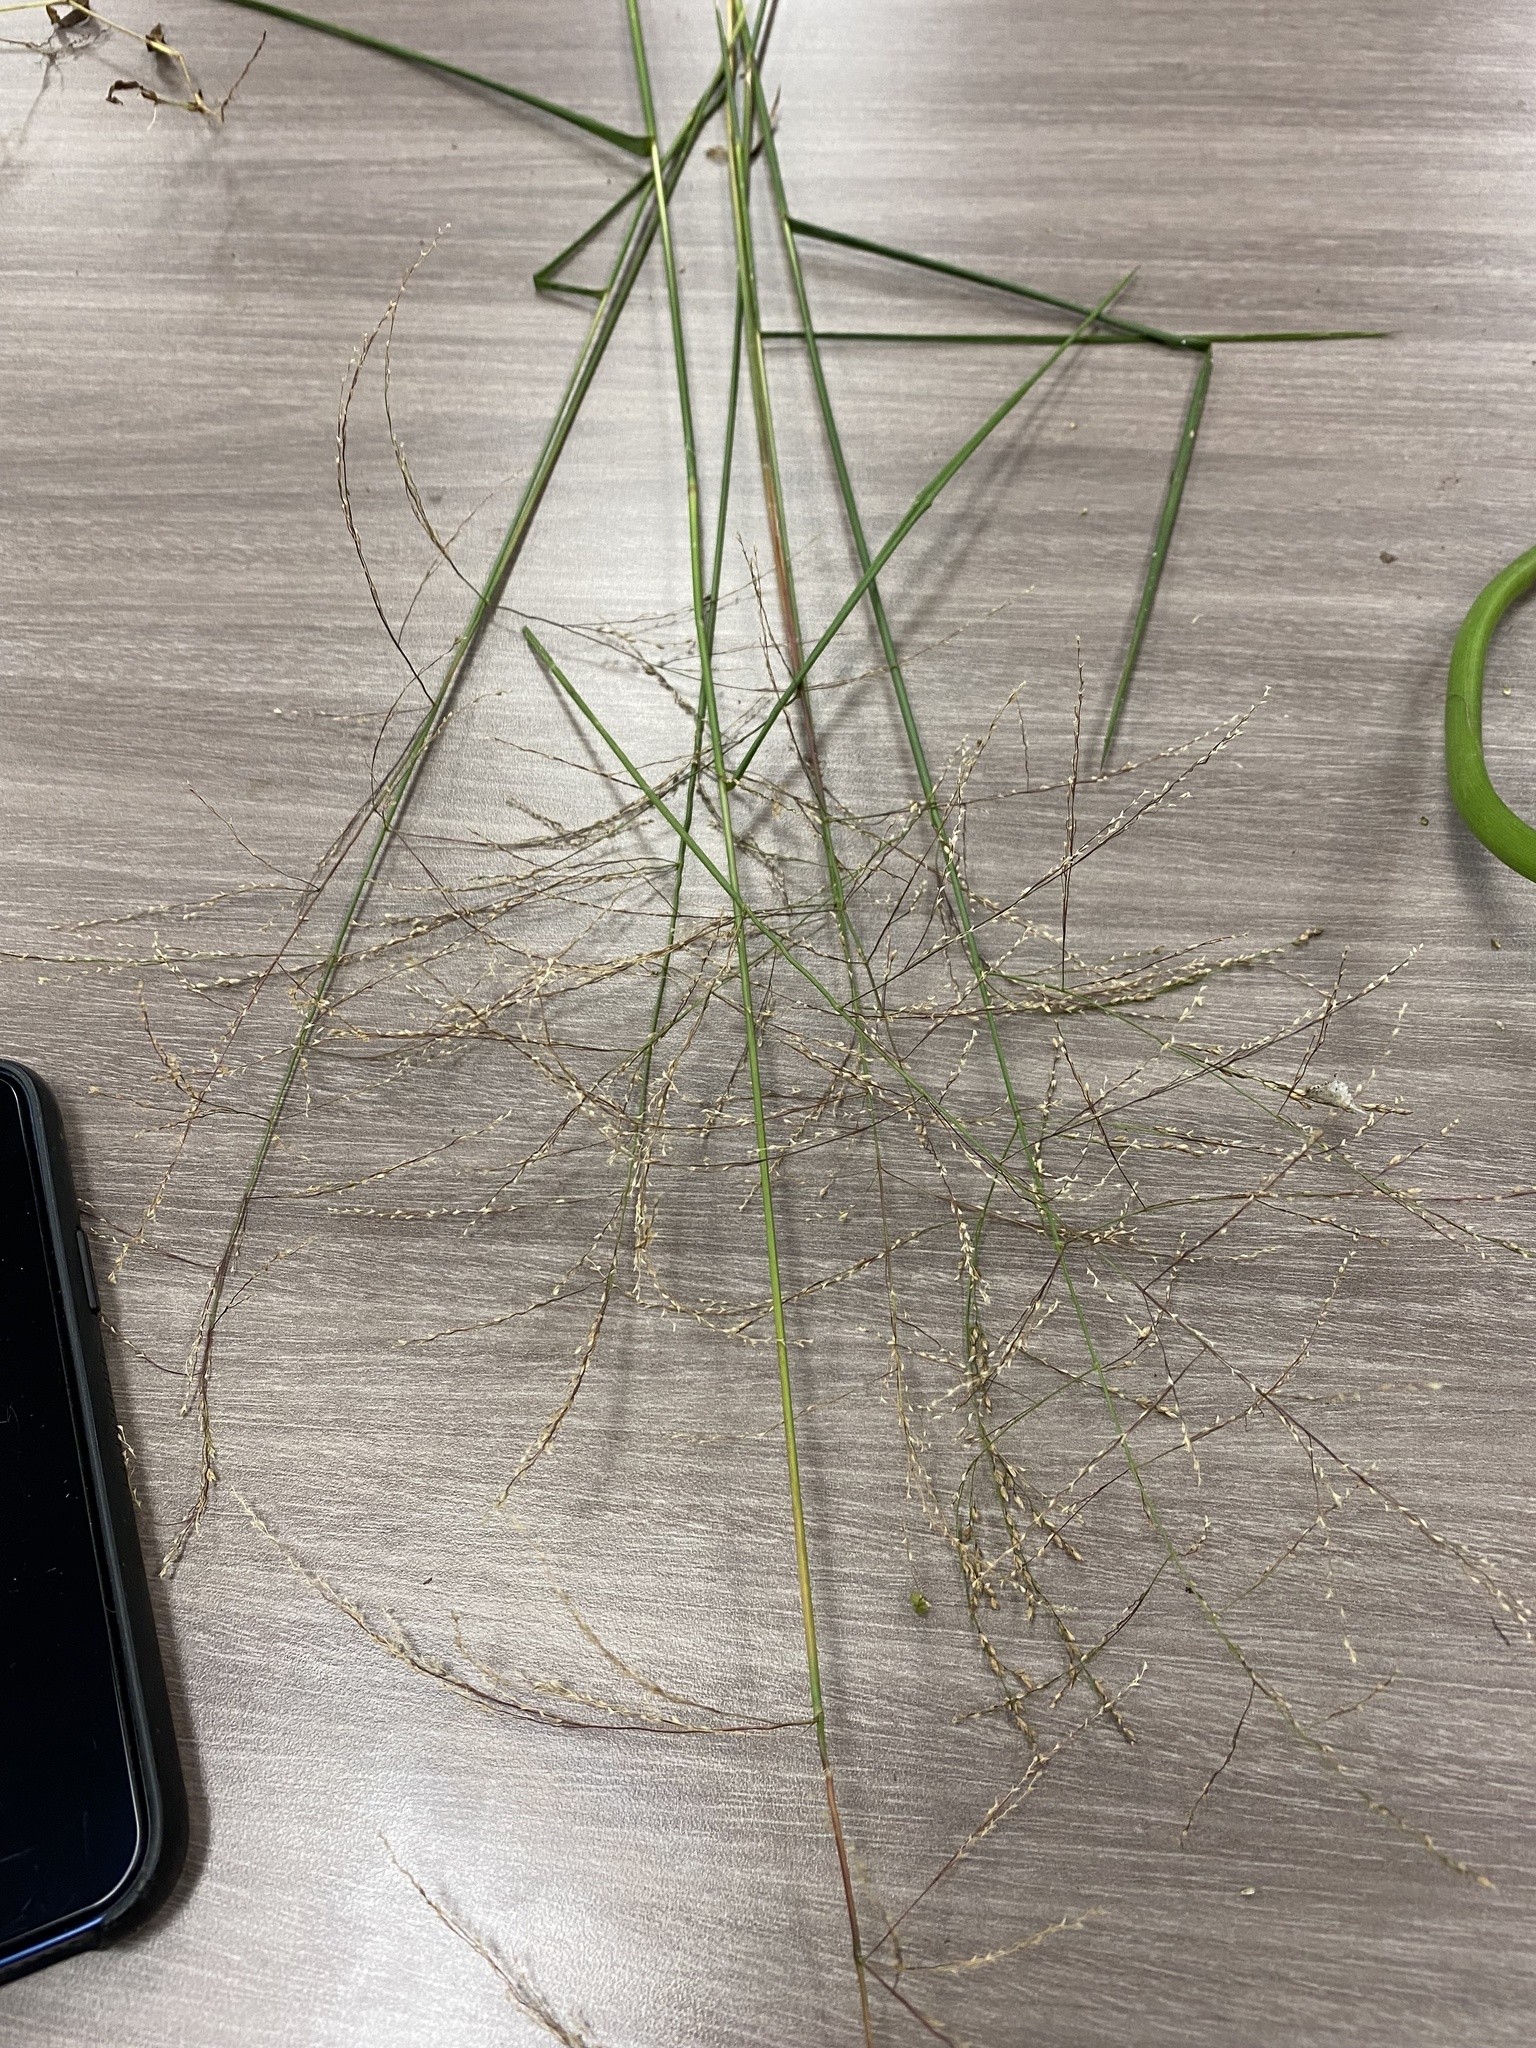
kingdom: Plantae
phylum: Tracheophyta
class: Liliopsida
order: Poales
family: Poaceae
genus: Glyceria
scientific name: Glyceria striata
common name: Fowl manna grass
